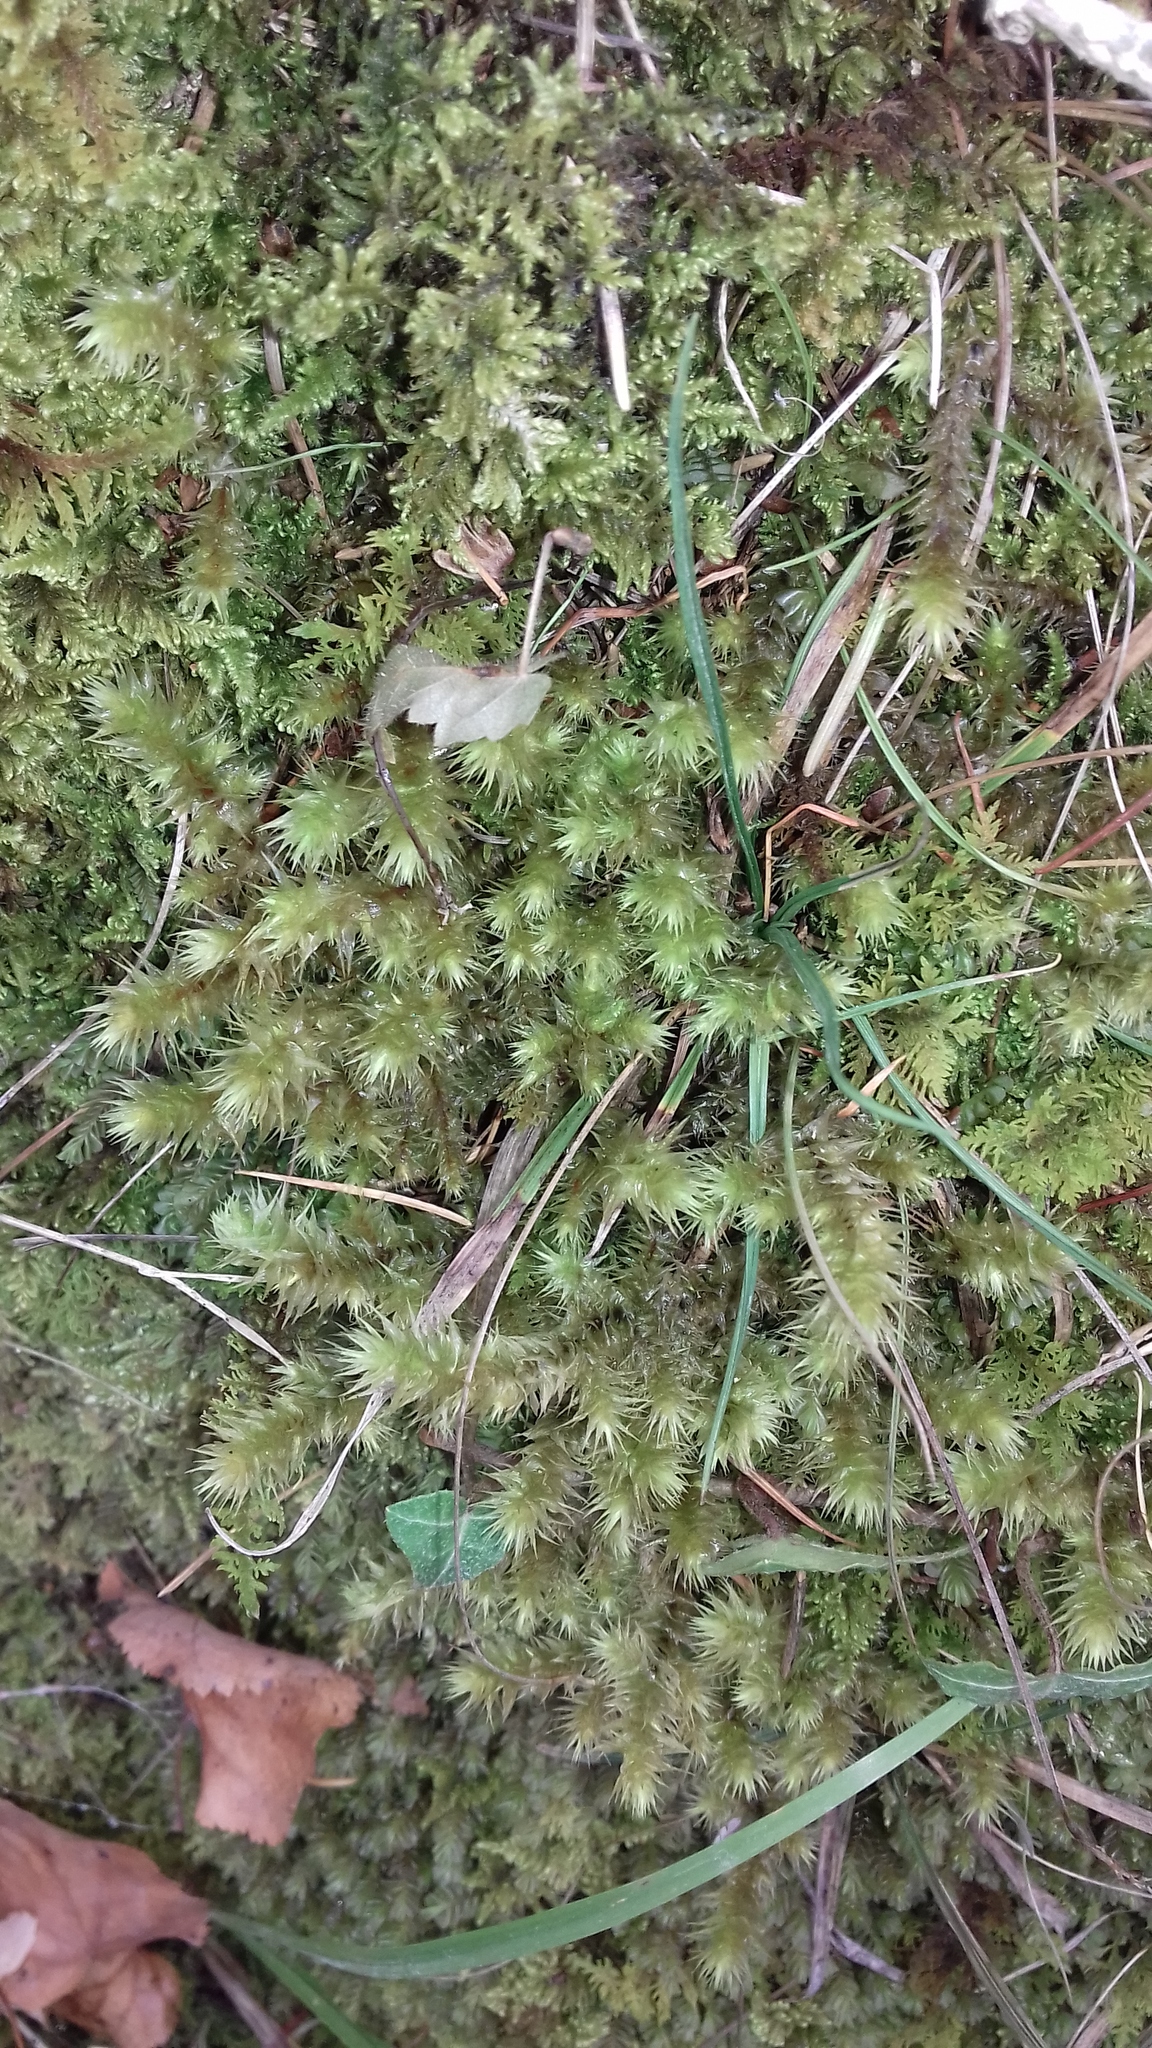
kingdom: Plantae
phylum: Bryophyta
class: Bryopsida
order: Hypnales
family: Hylocomiaceae
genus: Hylocomiadelphus
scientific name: Hylocomiadelphus triquetrus
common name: Rough goose neck moss
